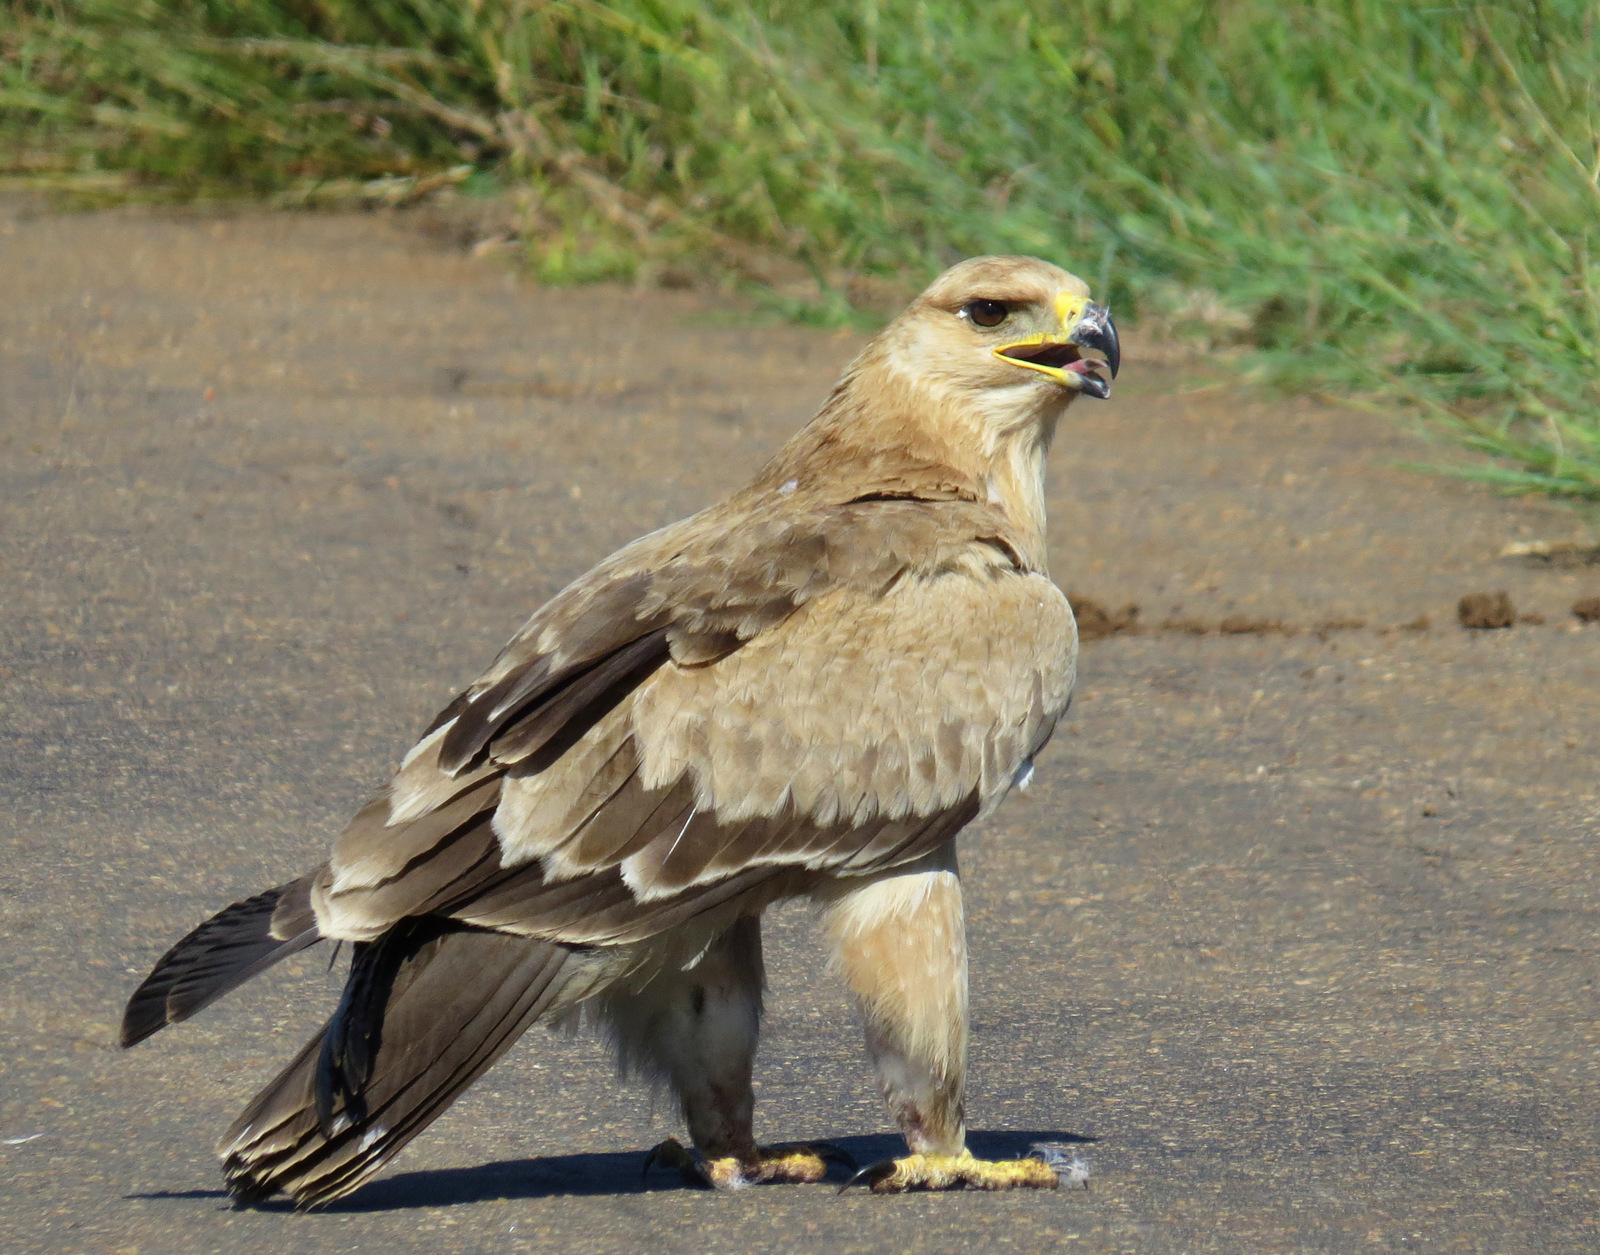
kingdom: Animalia
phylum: Chordata
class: Aves
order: Accipitriformes
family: Accipitridae
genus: Aquila
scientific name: Aquila rapax
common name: Tawny eagle
